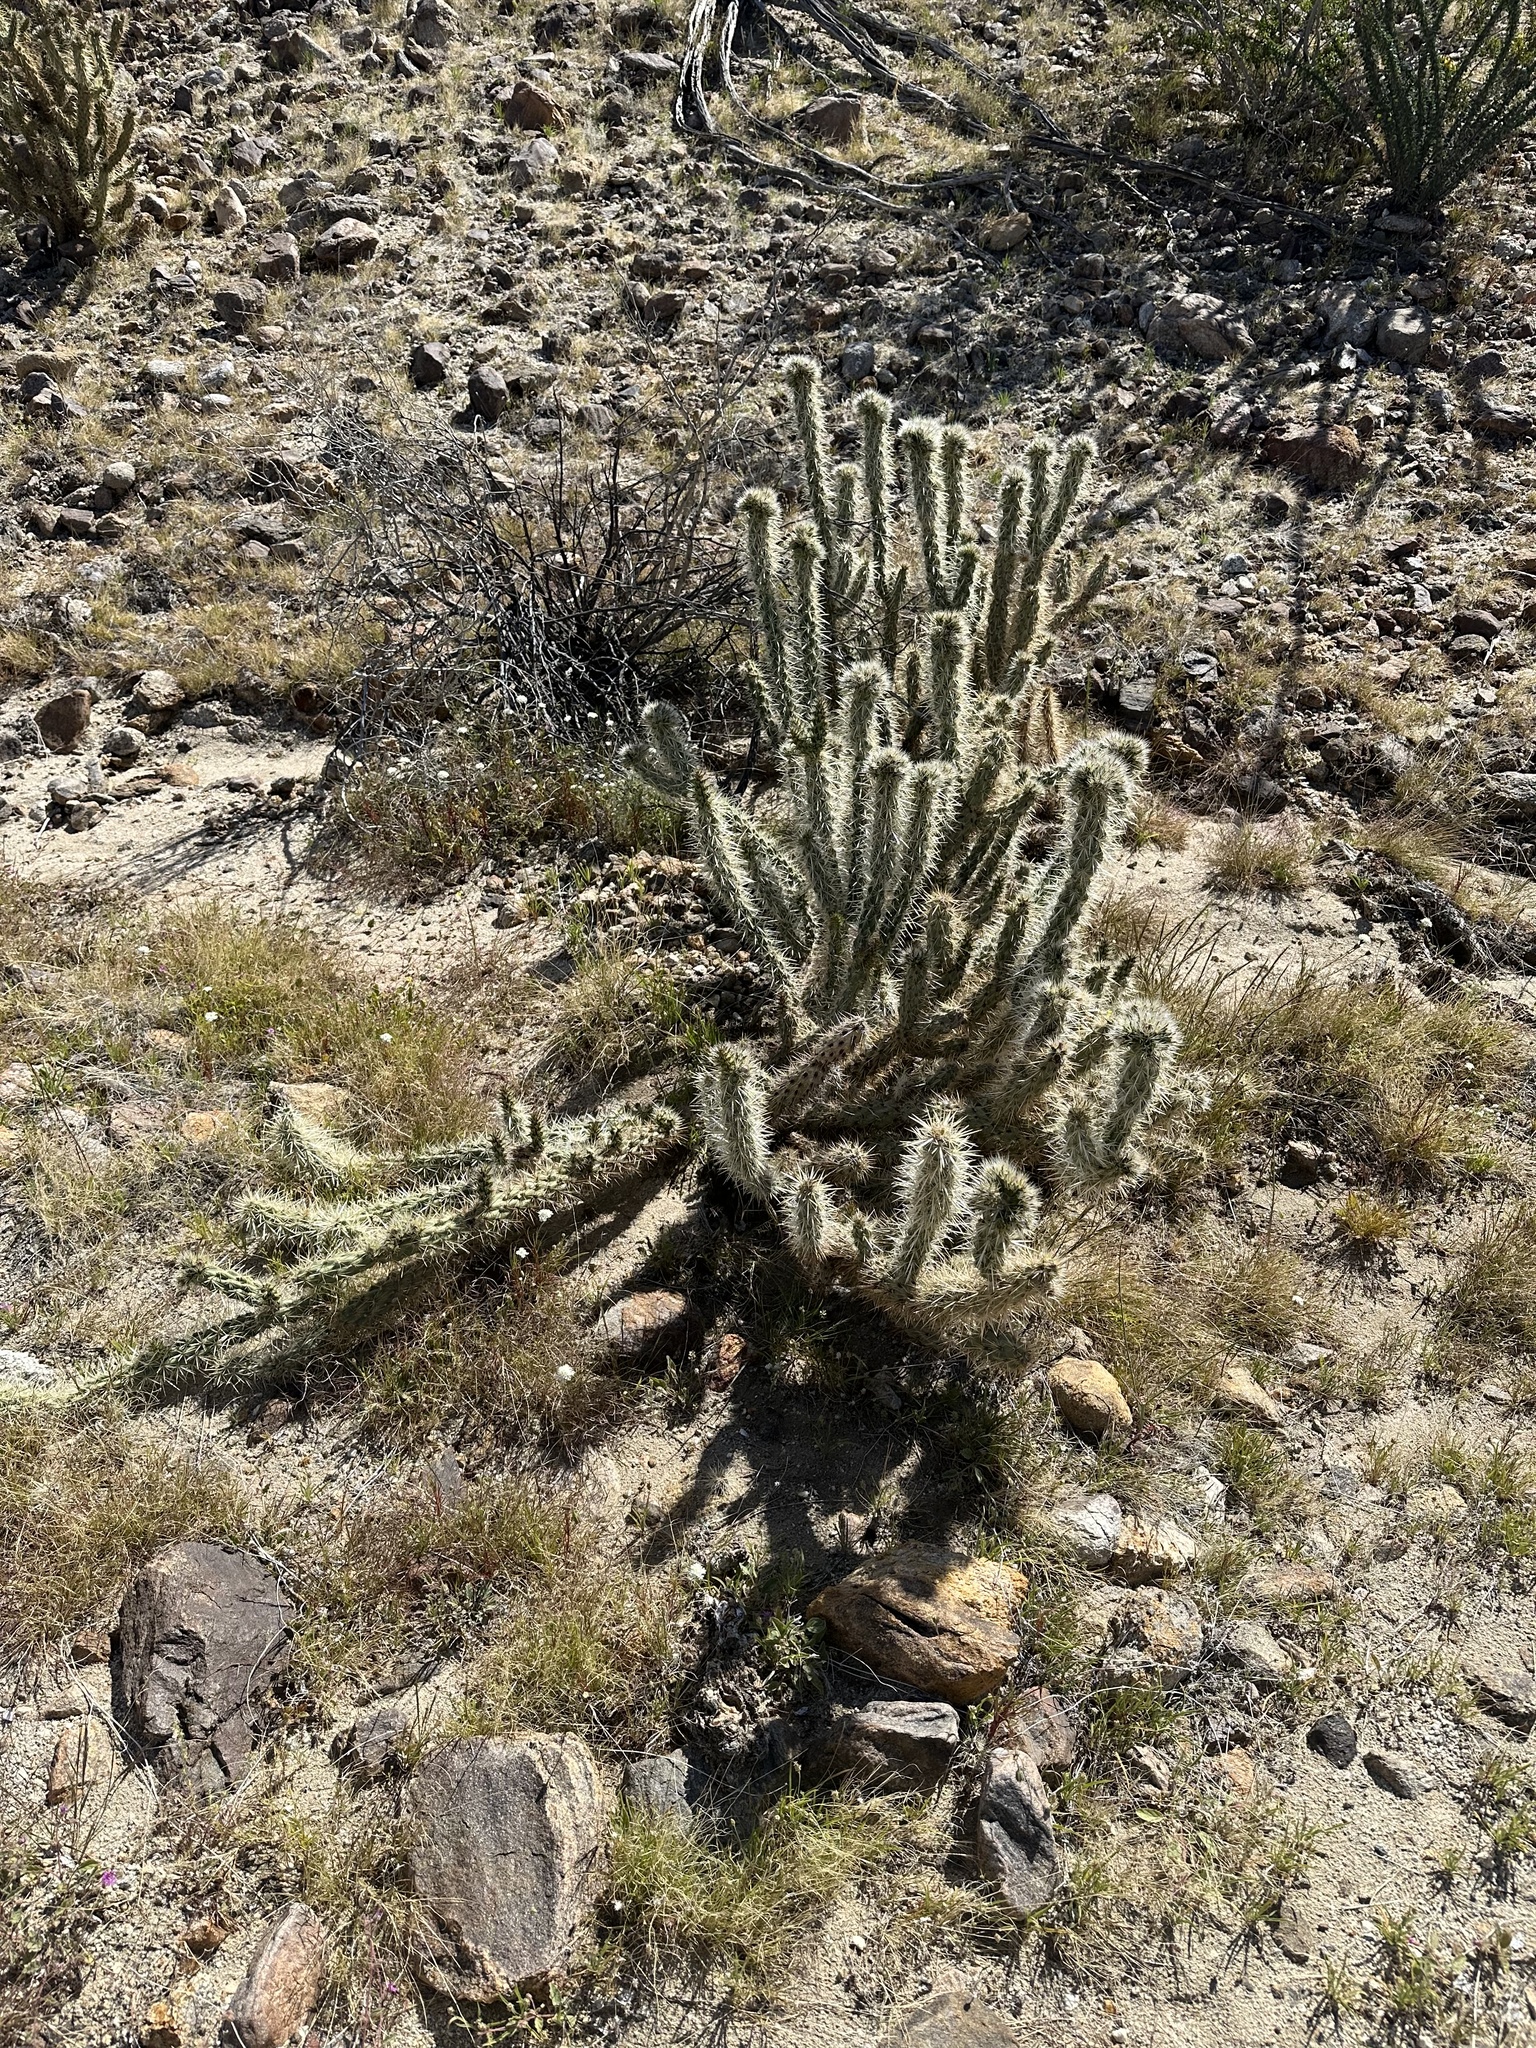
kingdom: Plantae
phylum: Tracheophyta
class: Magnoliopsida
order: Caryophyllales
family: Cactaceae
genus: Cylindropuntia
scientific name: Cylindropuntia ganderi
